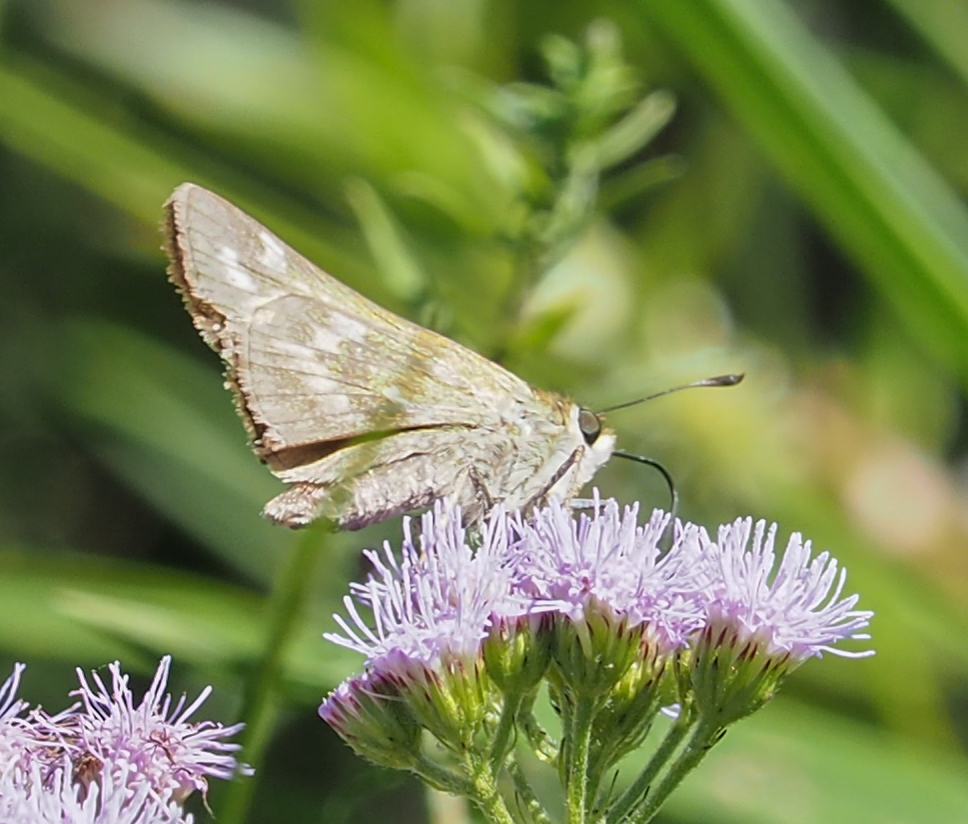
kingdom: Animalia
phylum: Arthropoda
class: Insecta
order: Lepidoptera
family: Hesperiidae
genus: Atalopedes
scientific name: Atalopedes
